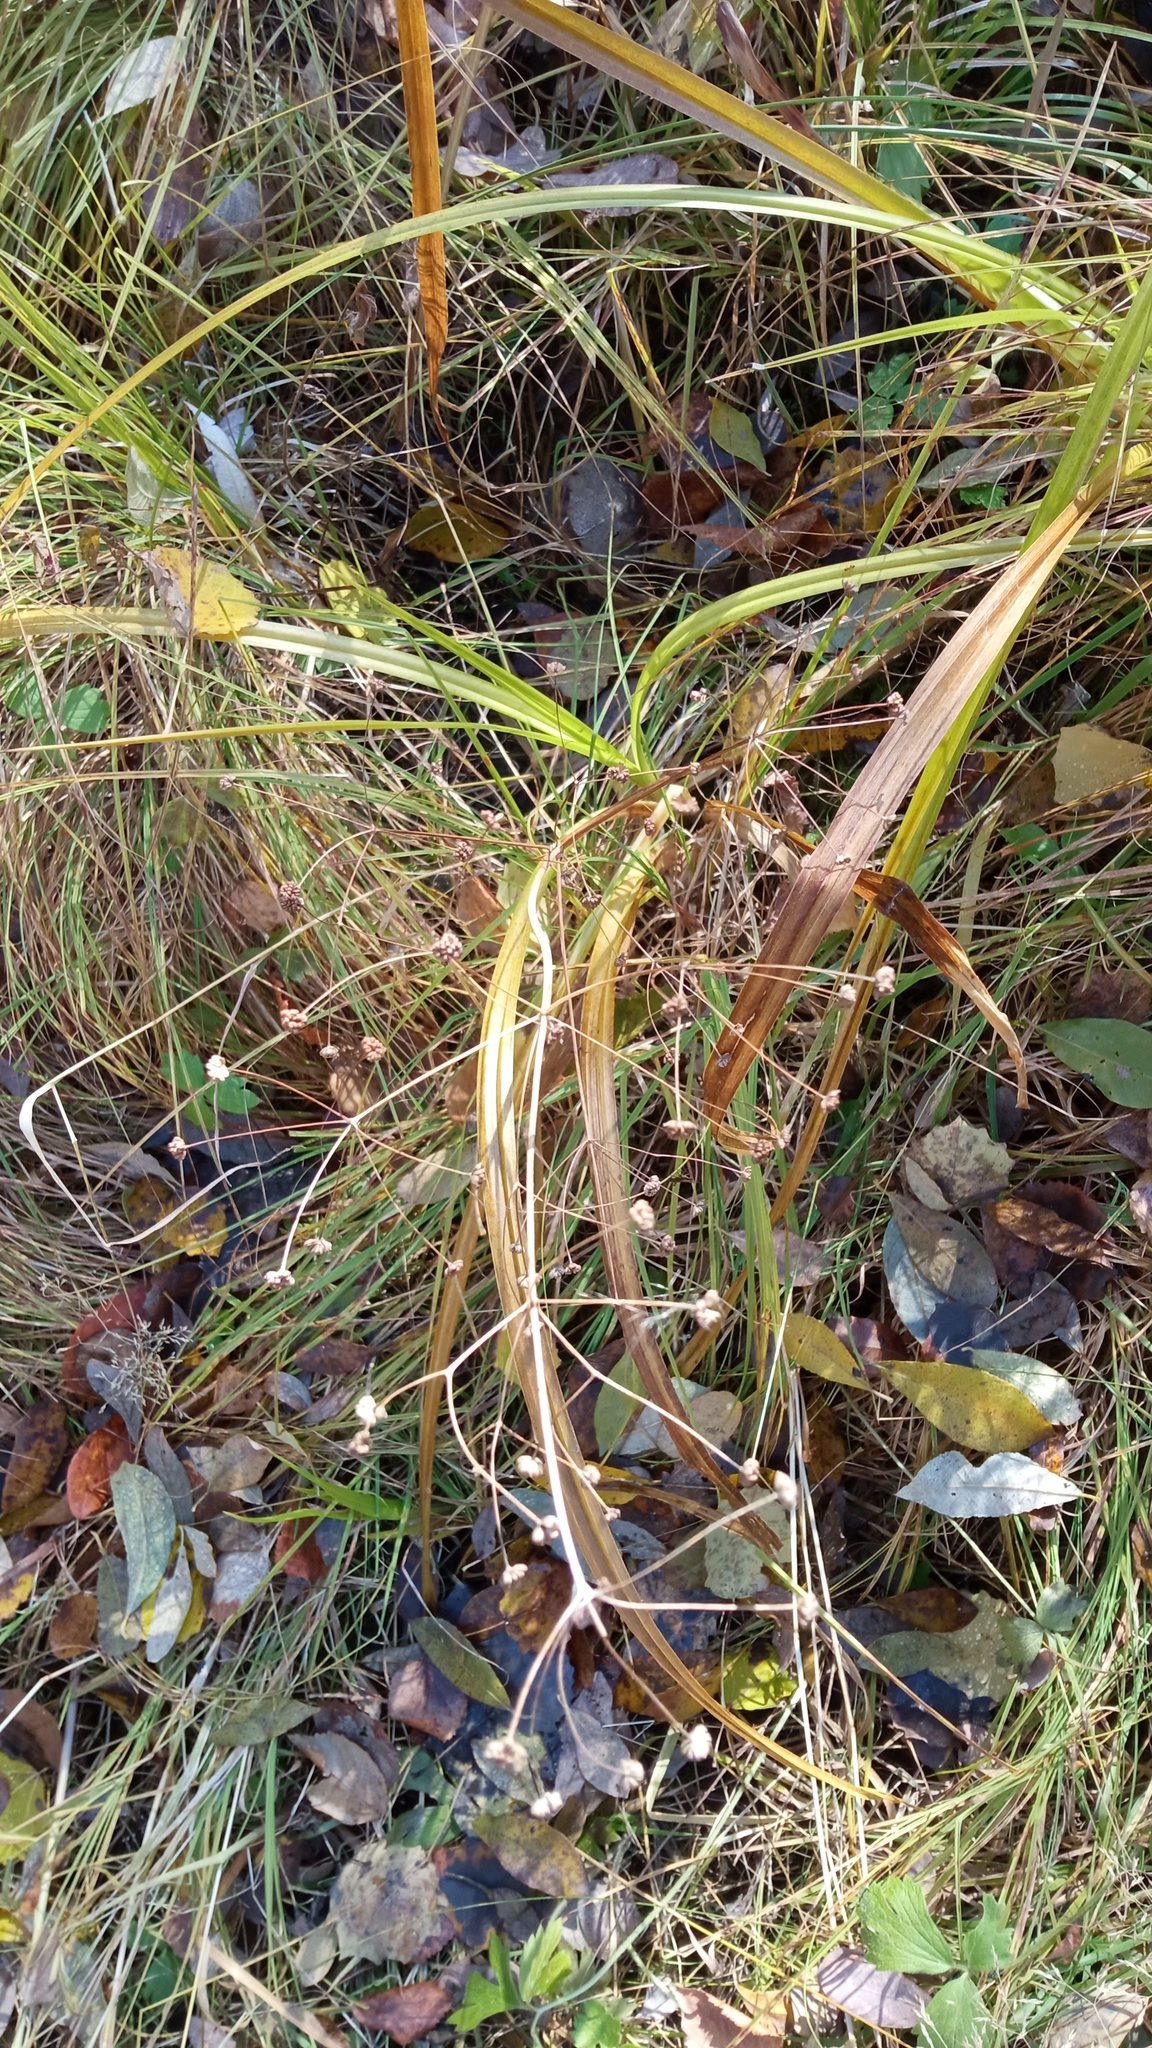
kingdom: Plantae
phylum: Tracheophyta
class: Liliopsida
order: Alismatales
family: Alismataceae
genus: Alisma
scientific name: Alisma plantago-aquatica
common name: Water-plantain
